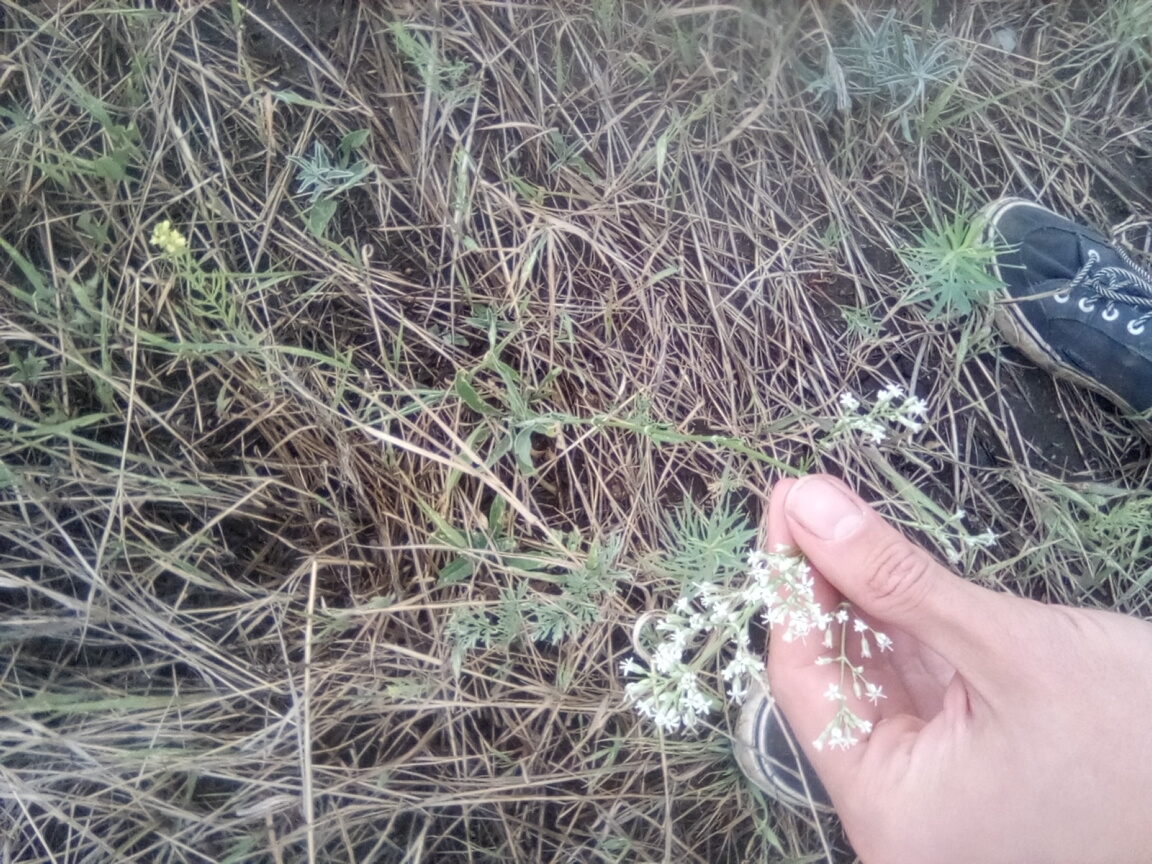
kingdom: Plantae
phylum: Tracheophyta
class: Magnoliopsida
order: Caryophyllales
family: Caryophyllaceae
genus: Silene
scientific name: Silene wolgensis
